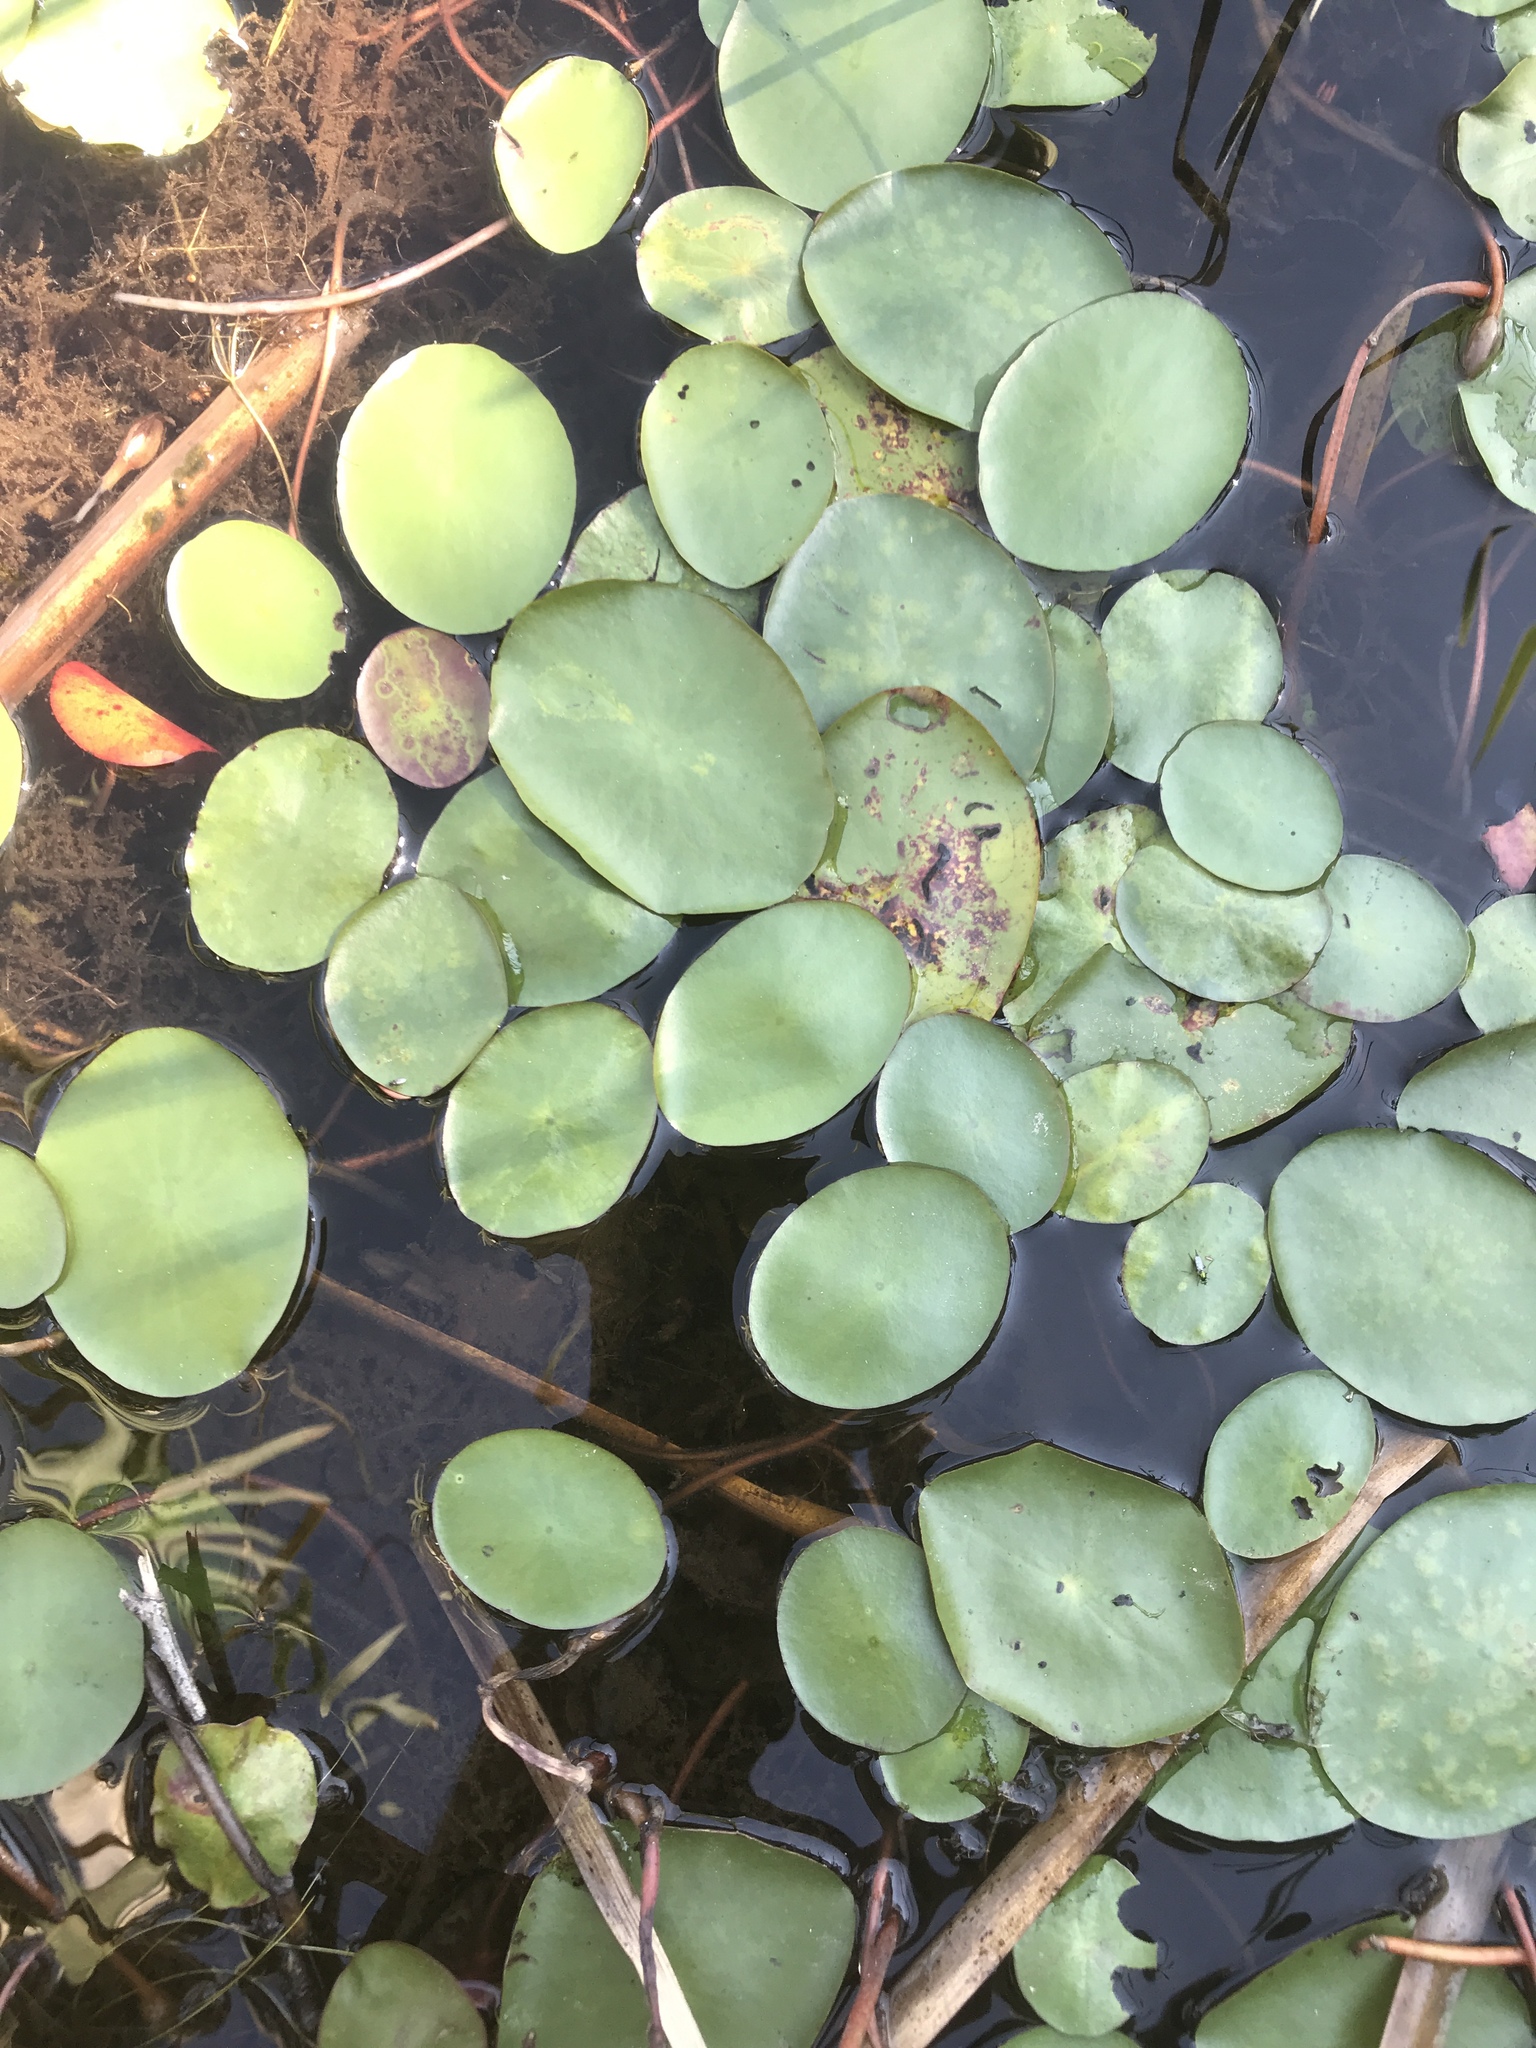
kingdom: Plantae
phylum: Tracheophyta
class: Magnoliopsida
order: Nymphaeales
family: Cabombaceae
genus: Brasenia
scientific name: Brasenia schreberi
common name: Water-shield
